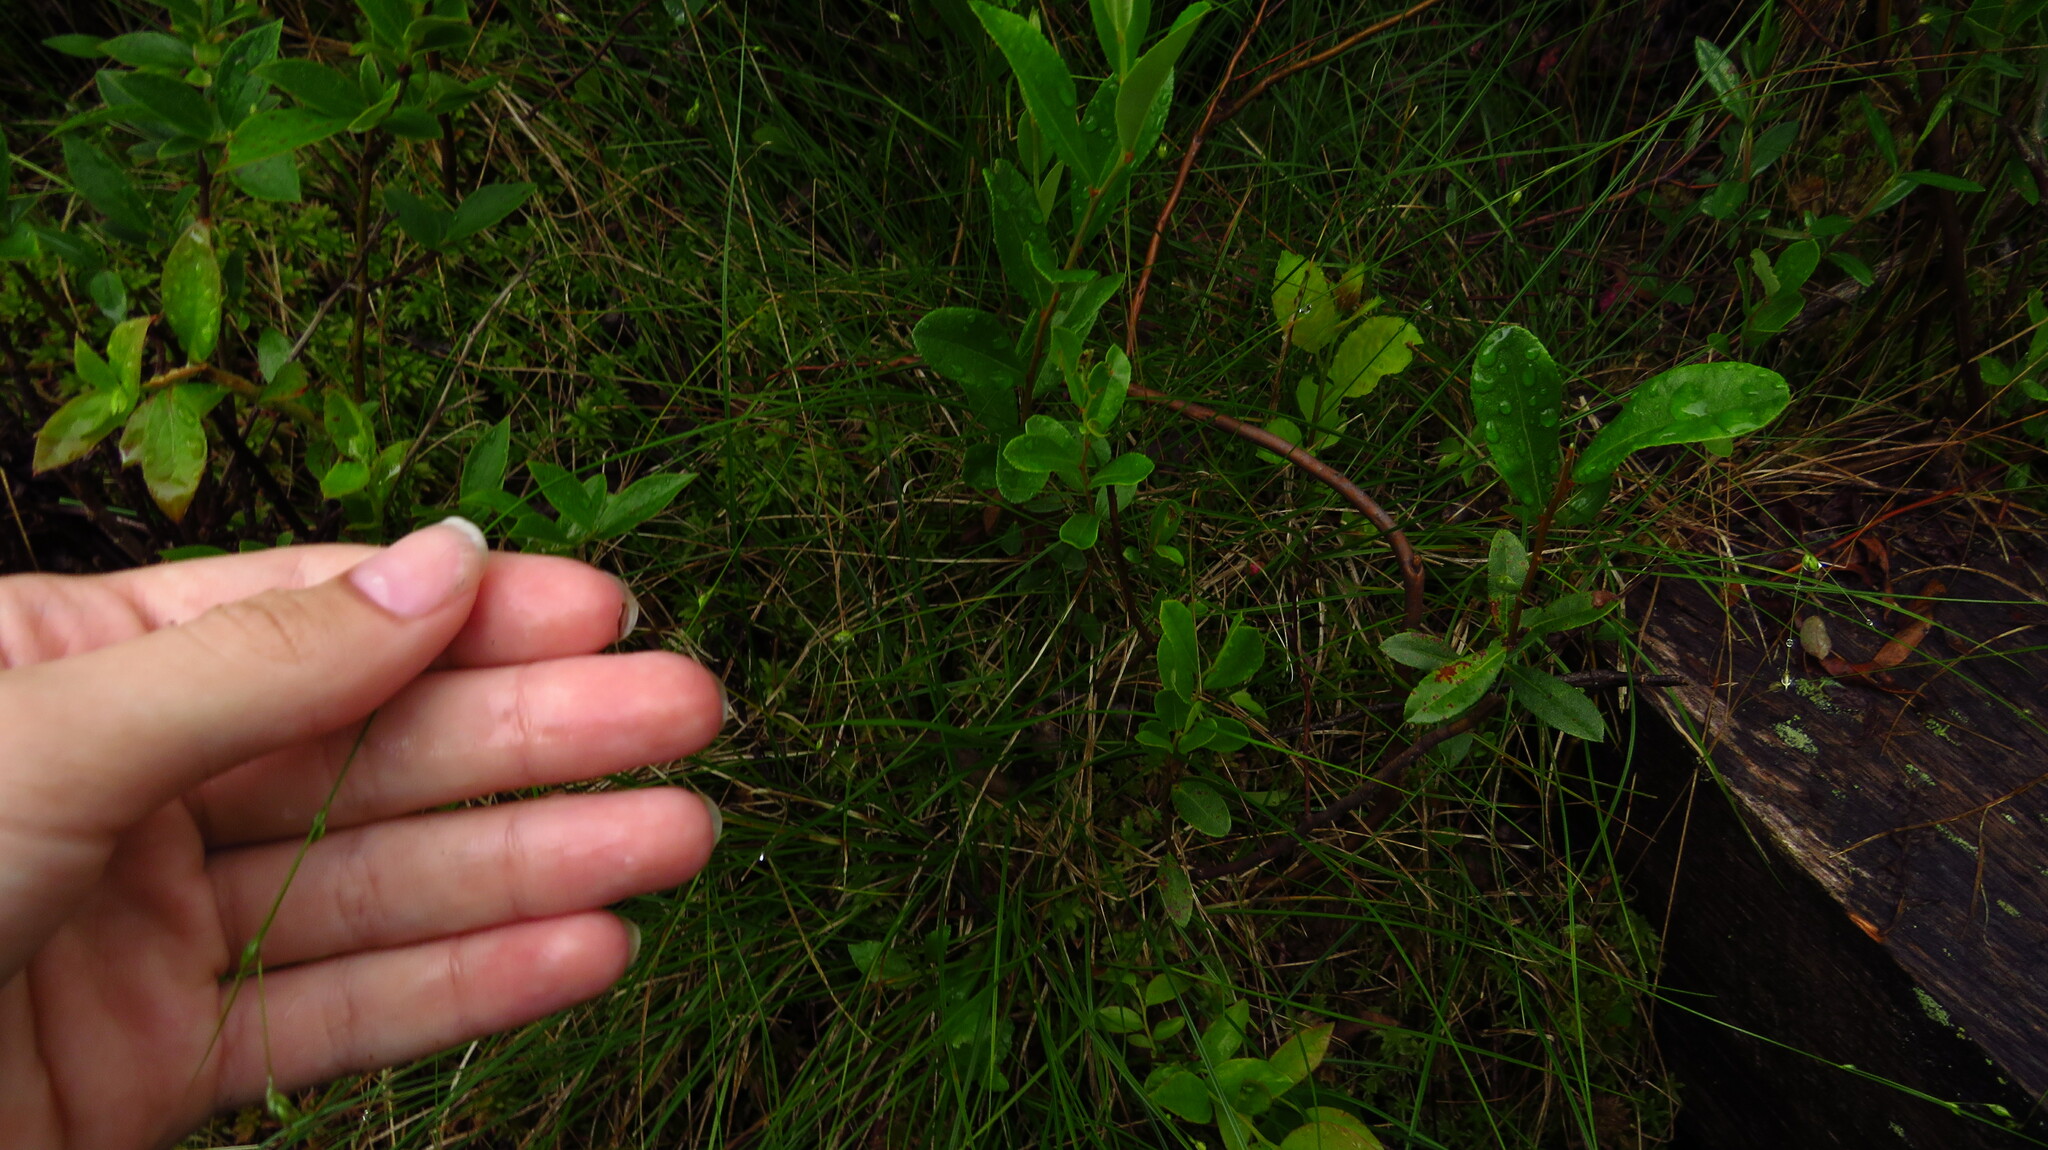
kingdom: Plantae
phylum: Tracheophyta
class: Liliopsida
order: Poales
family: Cyperaceae
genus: Carex
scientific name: Carex trisperma
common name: Three-seeded sedge
